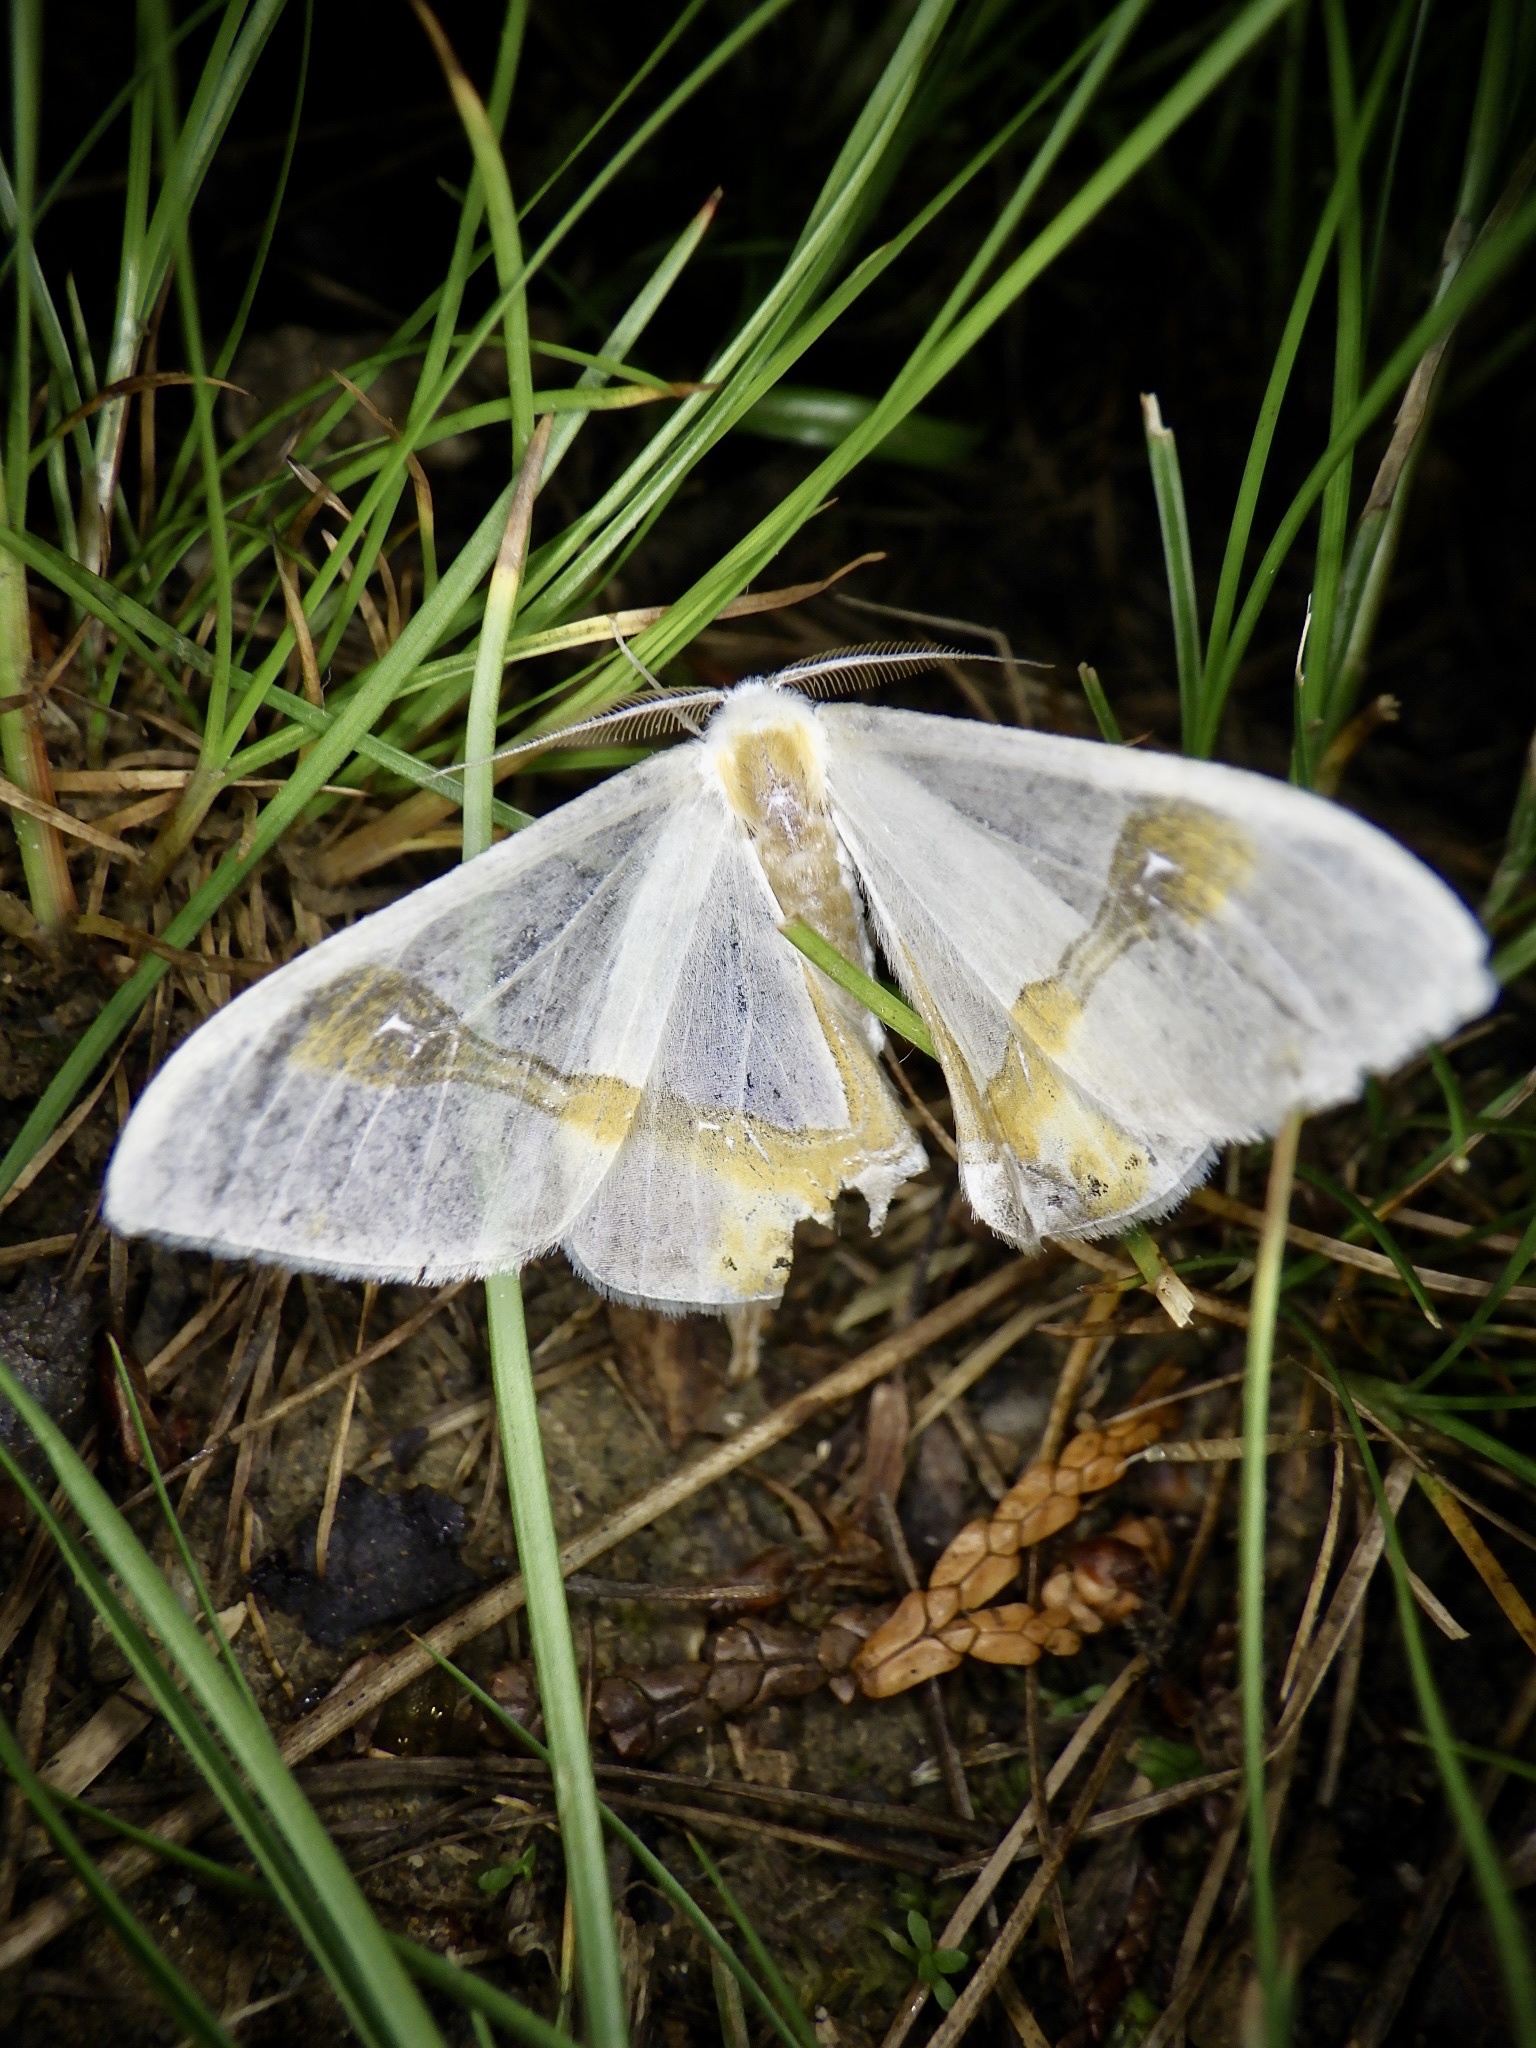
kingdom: Animalia
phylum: Arthropoda
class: Insecta
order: Lepidoptera
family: Drepanidae
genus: Macrocilix
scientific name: Macrocilix mysticata
